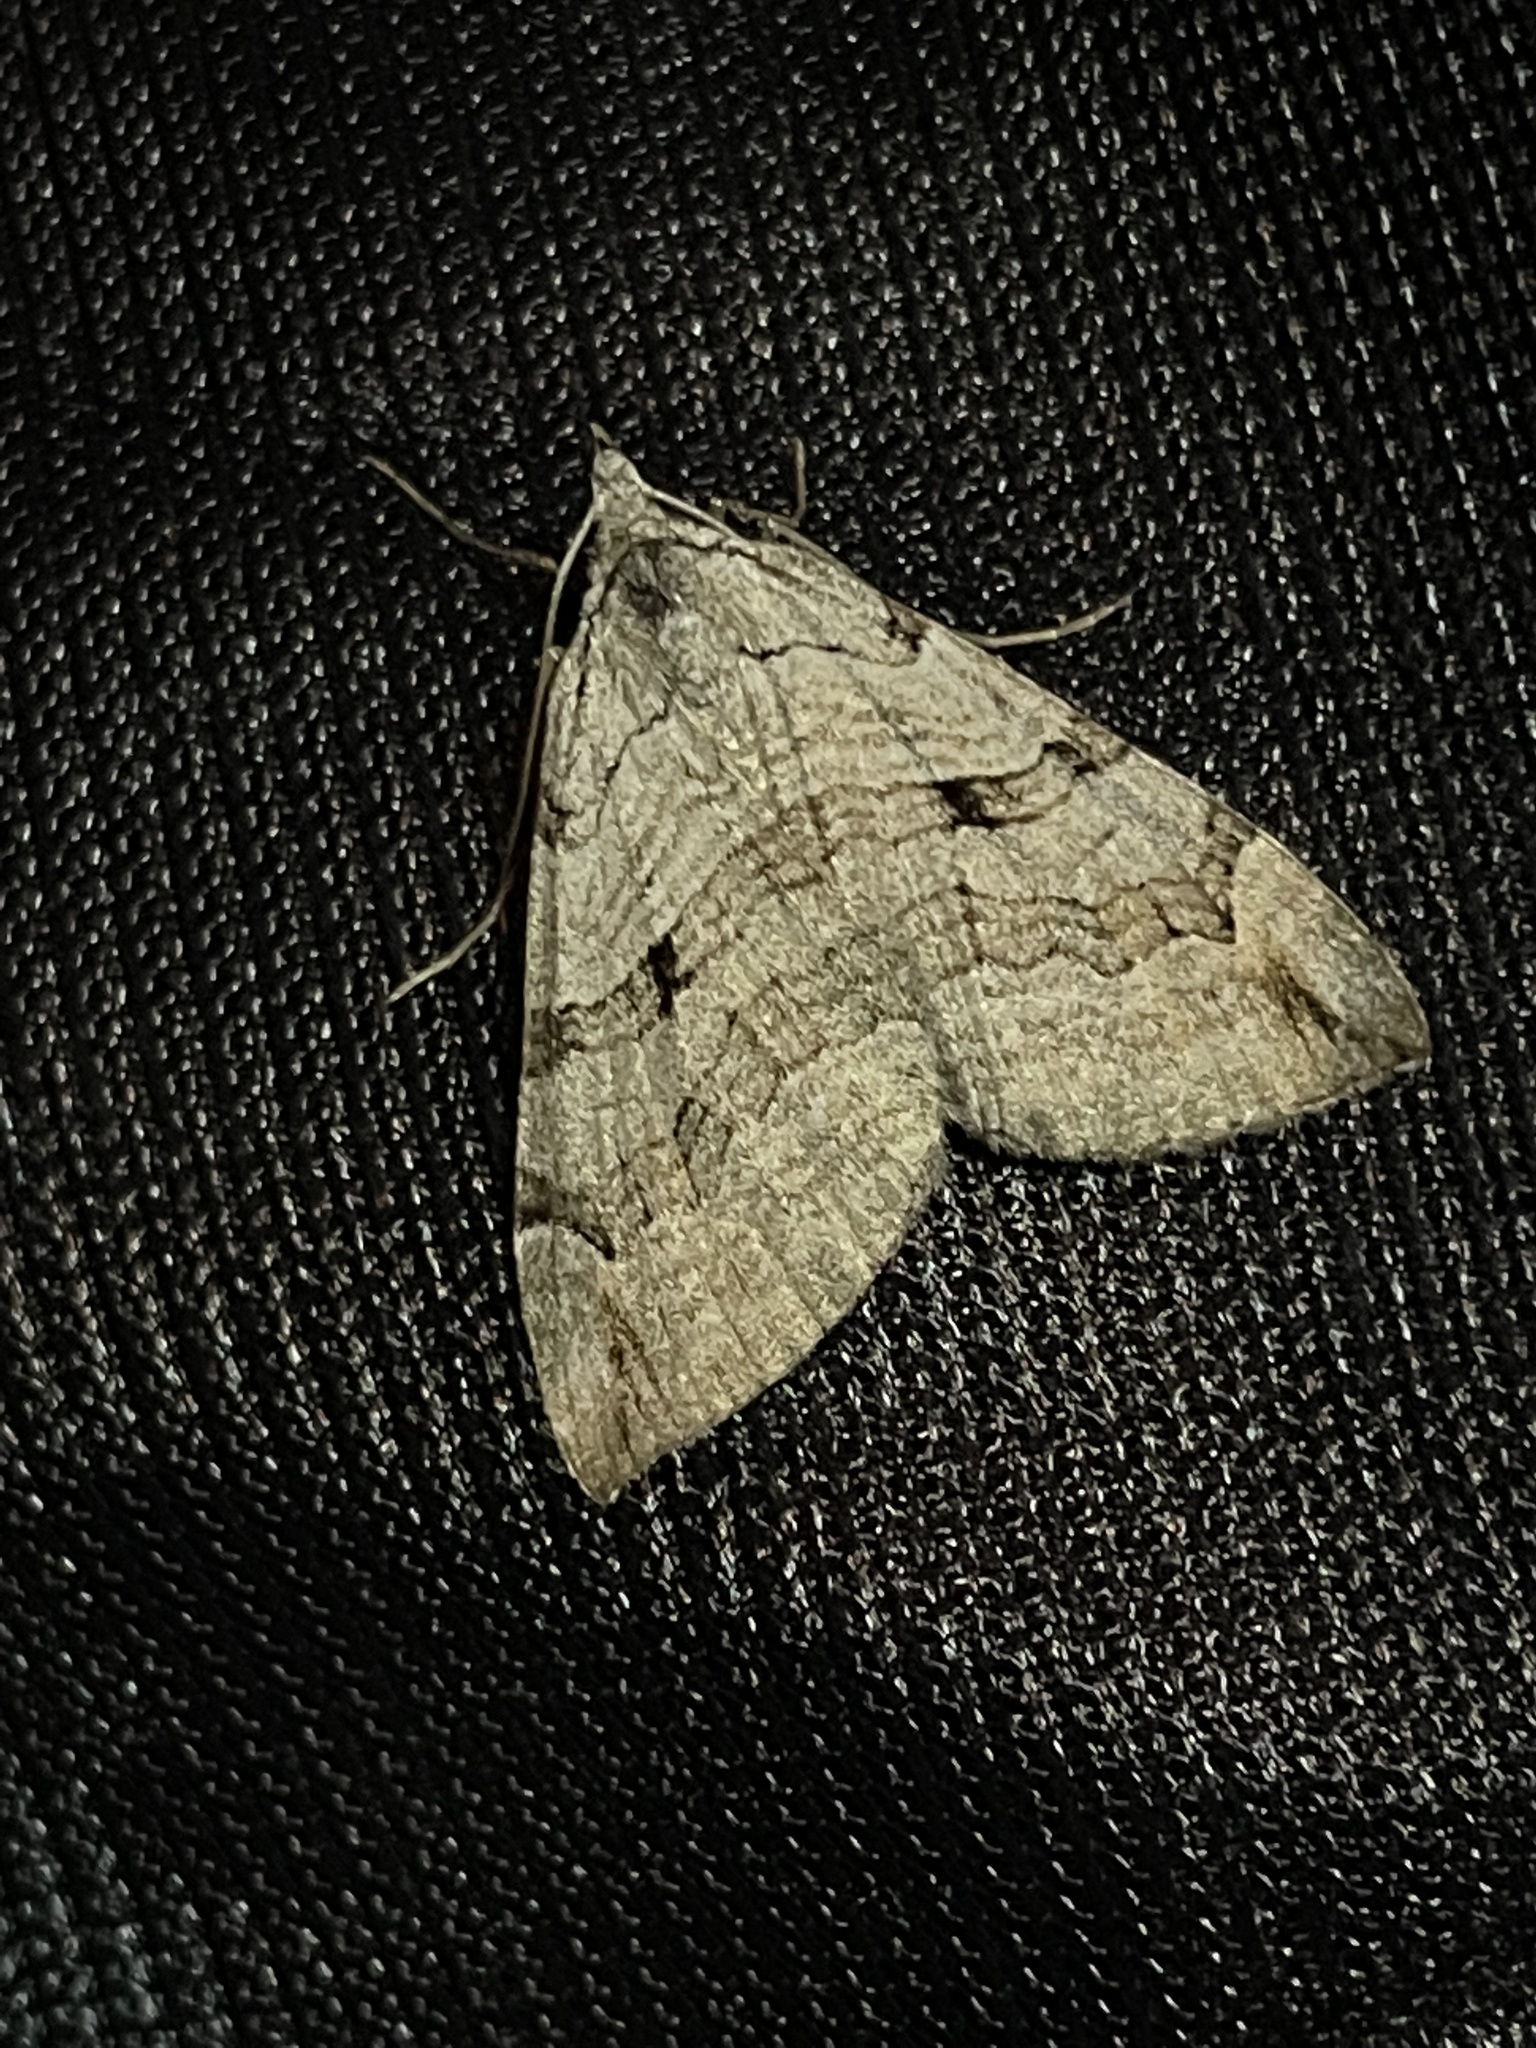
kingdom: Animalia
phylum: Arthropoda
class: Insecta
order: Lepidoptera
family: Geometridae
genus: Aplocera
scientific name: Aplocera plagiata
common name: Treble-bar
